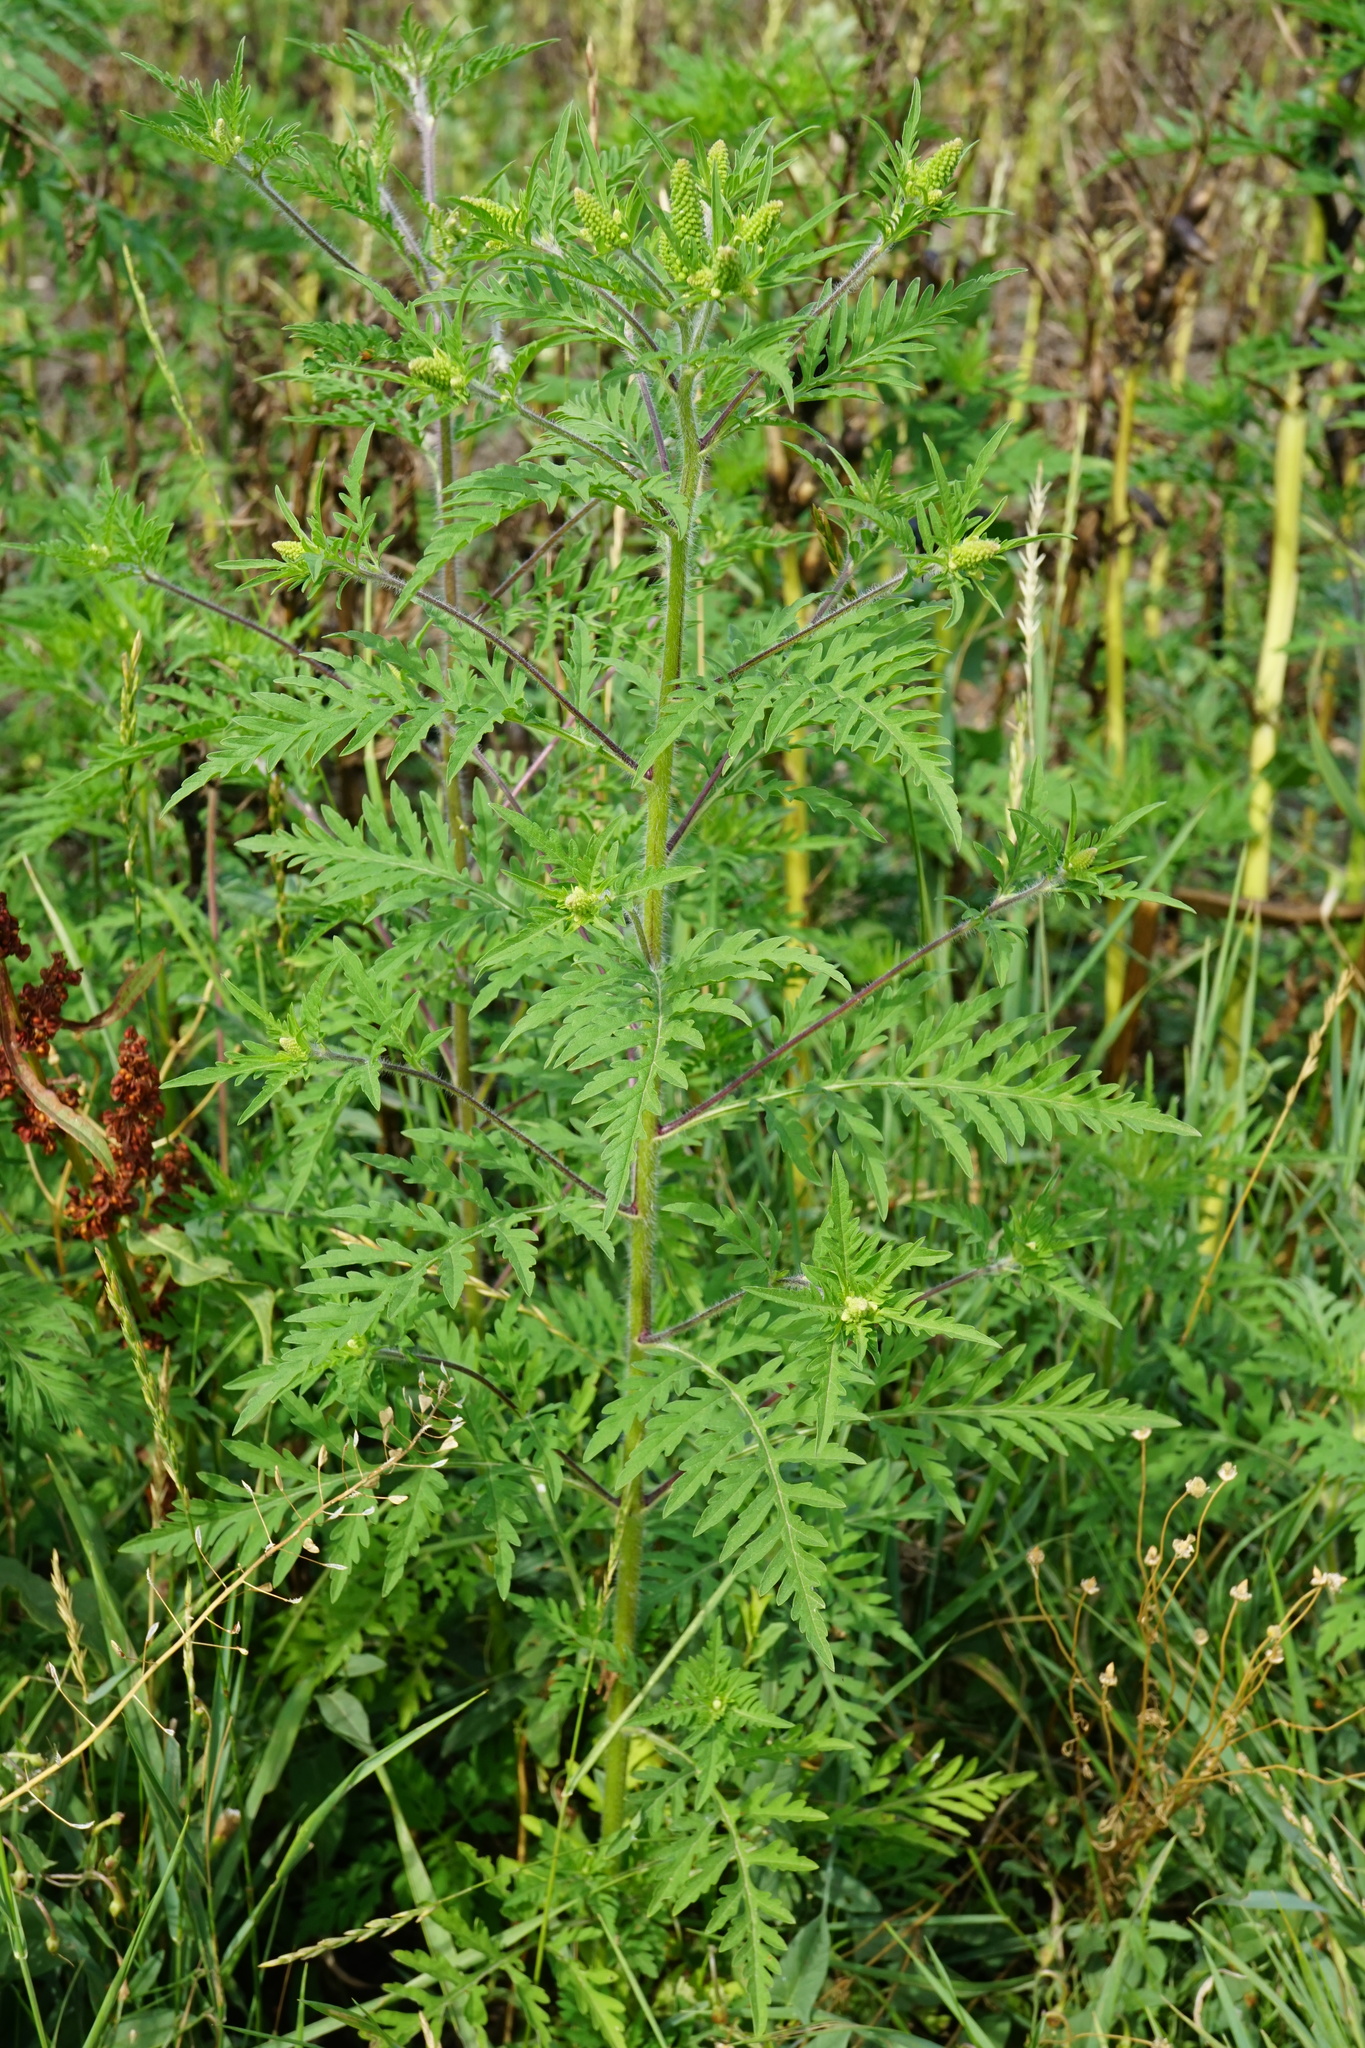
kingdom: Plantae
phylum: Tracheophyta
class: Magnoliopsida
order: Asterales
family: Asteraceae
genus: Ambrosia
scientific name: Ambrosia artemisiifolia
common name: Annual ragweed
